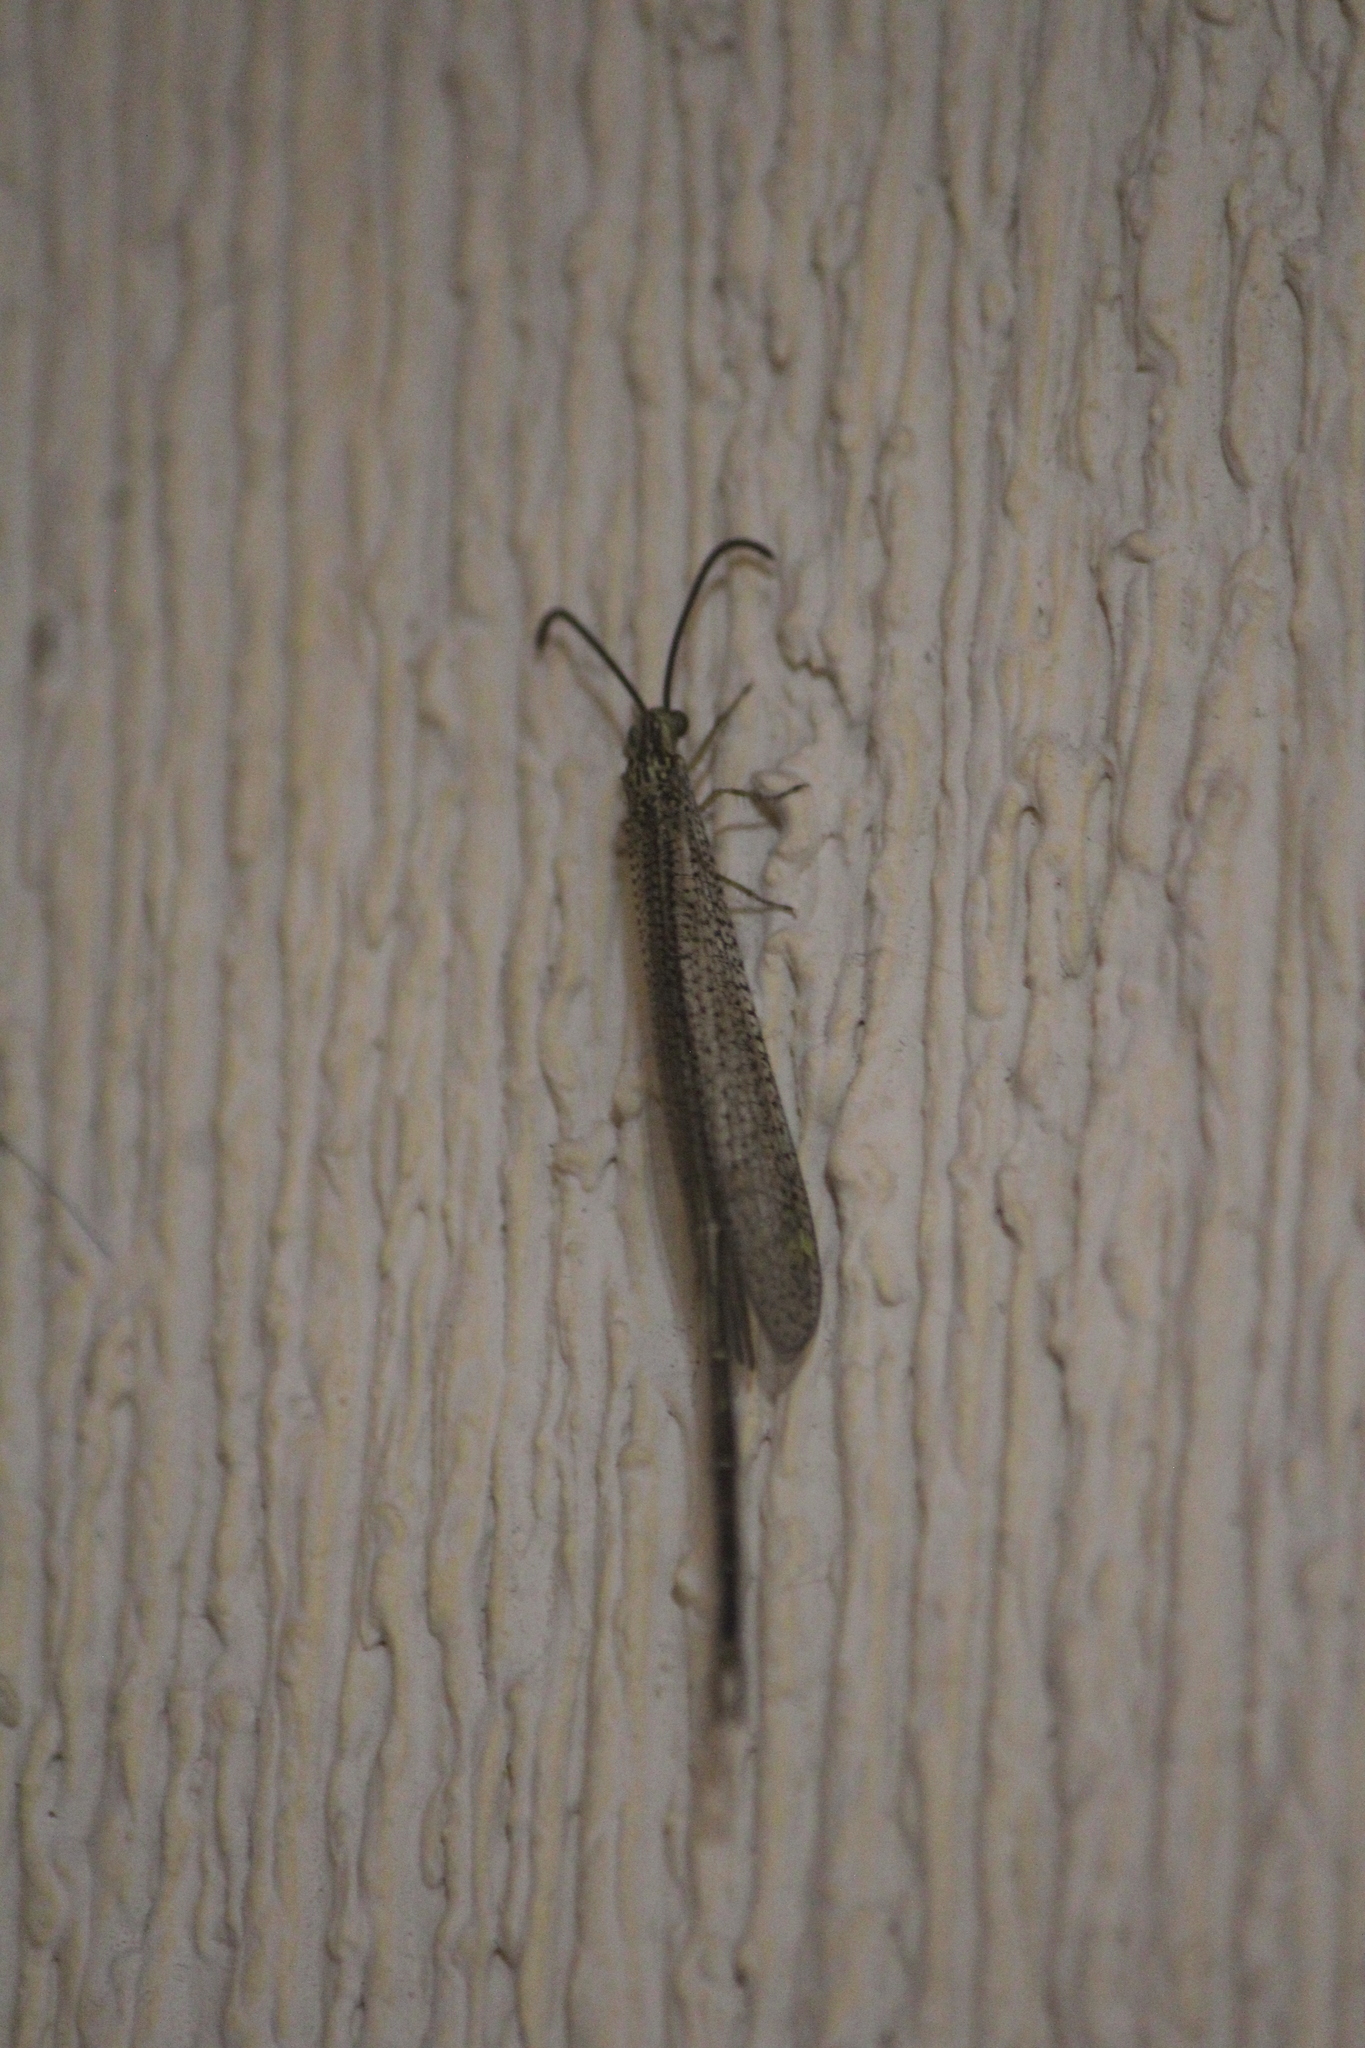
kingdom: Animalia
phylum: Arthropoda
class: Insecta
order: Neuroptera
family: Myrmeleontidae
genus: Brachynemurus
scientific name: Brachynemurus versutus
